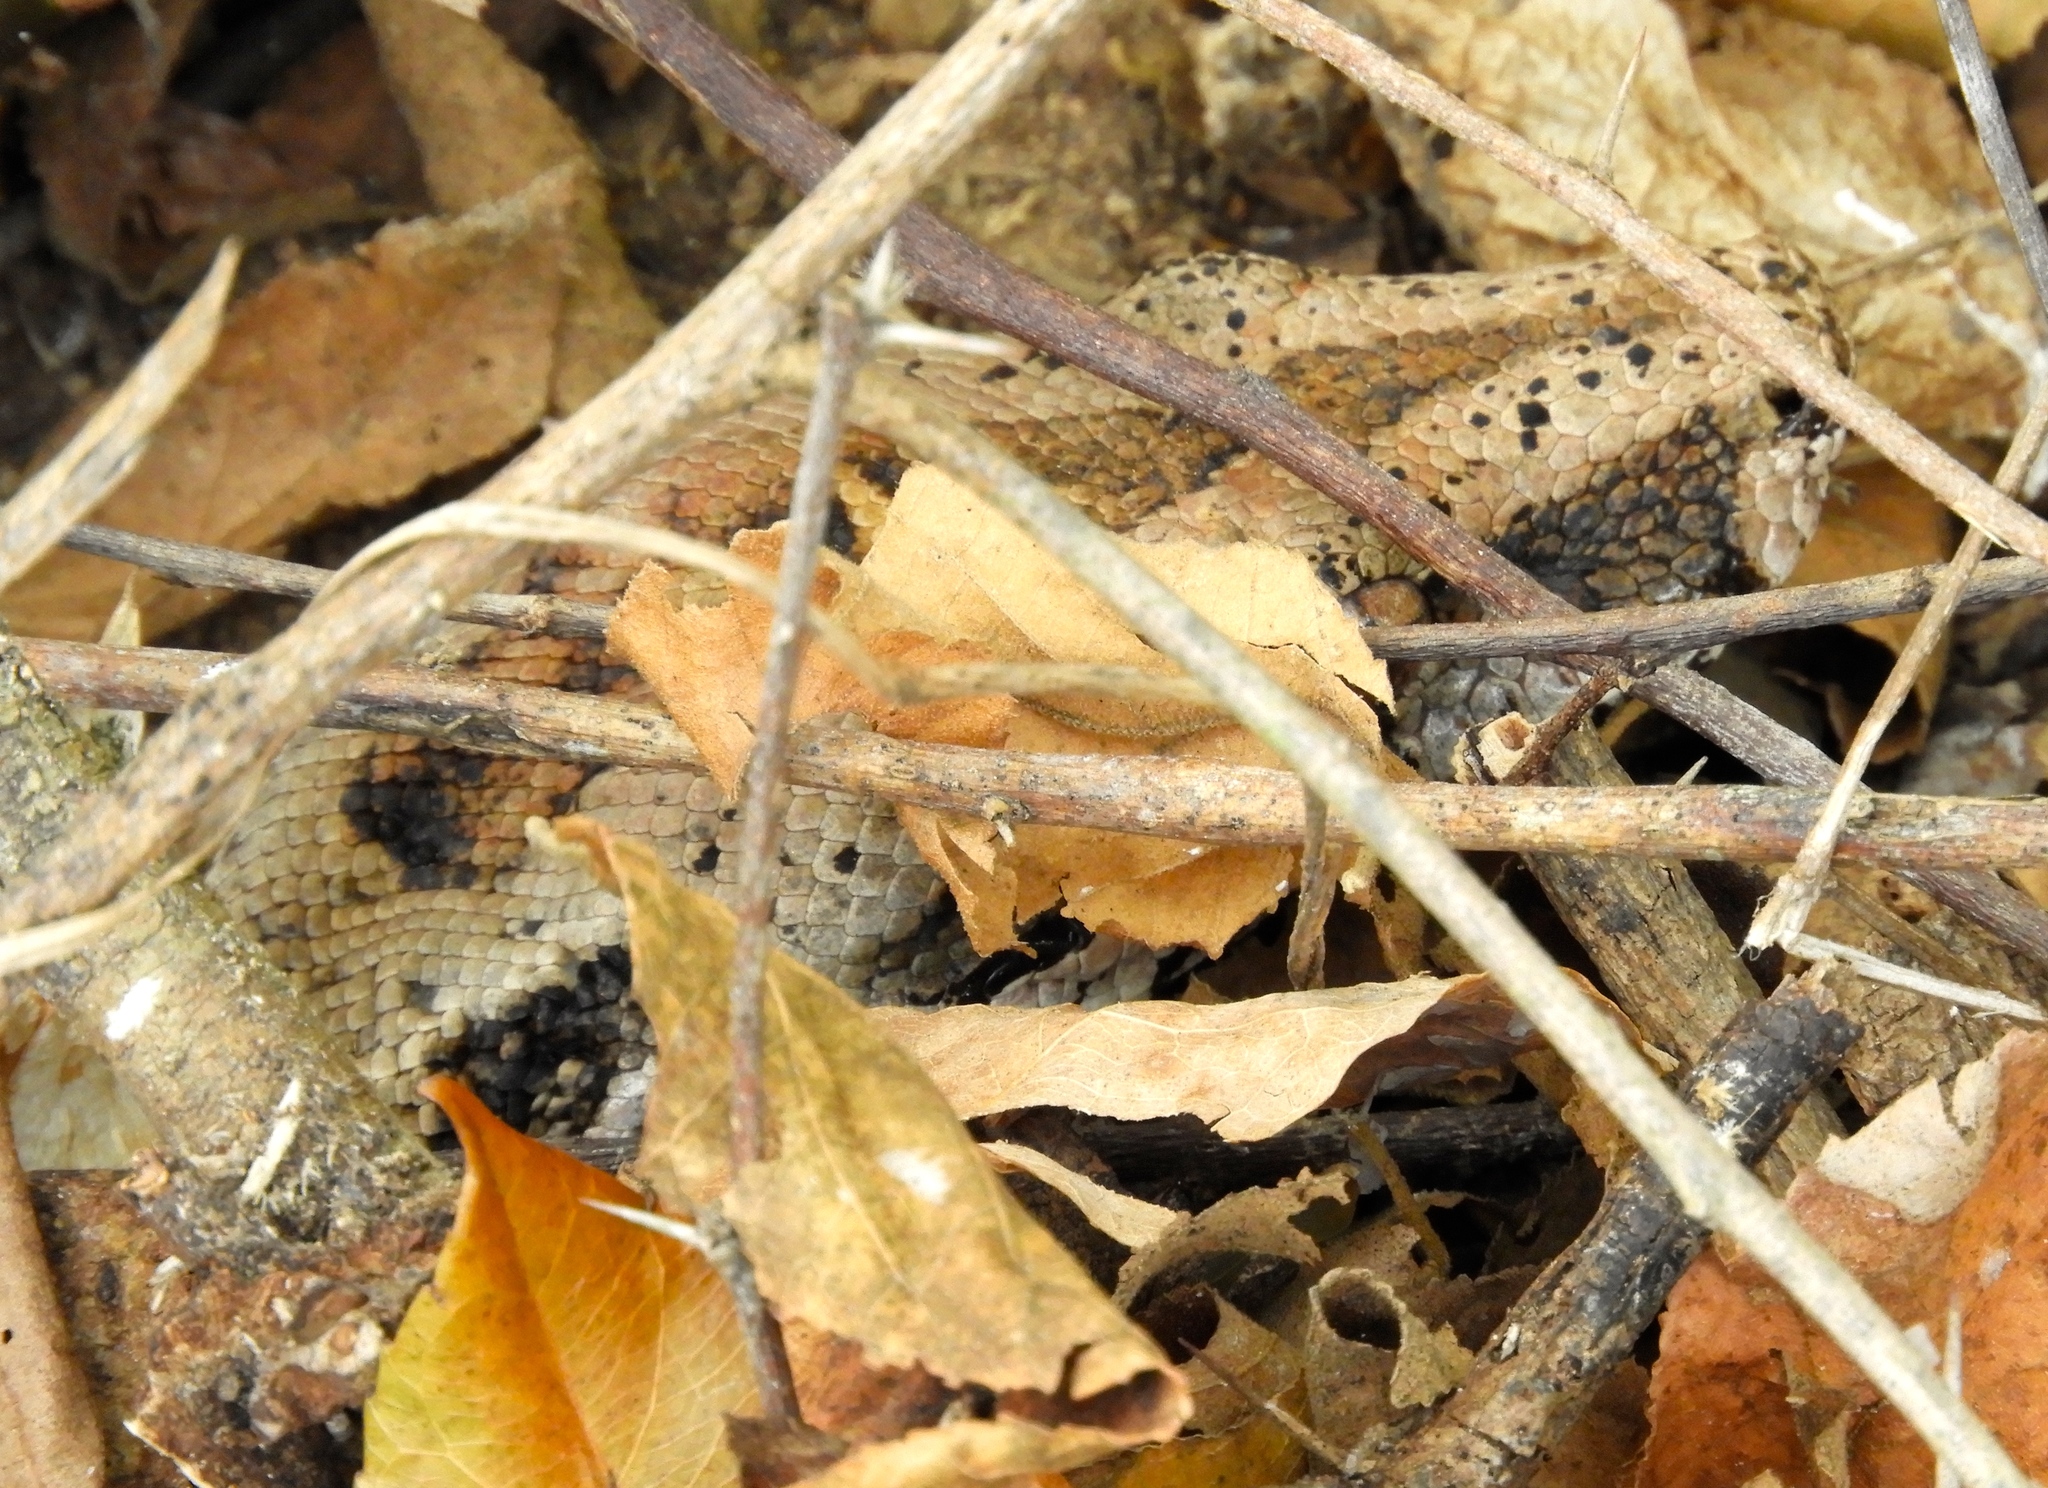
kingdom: Animalia
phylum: Chordata
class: Squamata
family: Boidae
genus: Boa
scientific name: Boa
